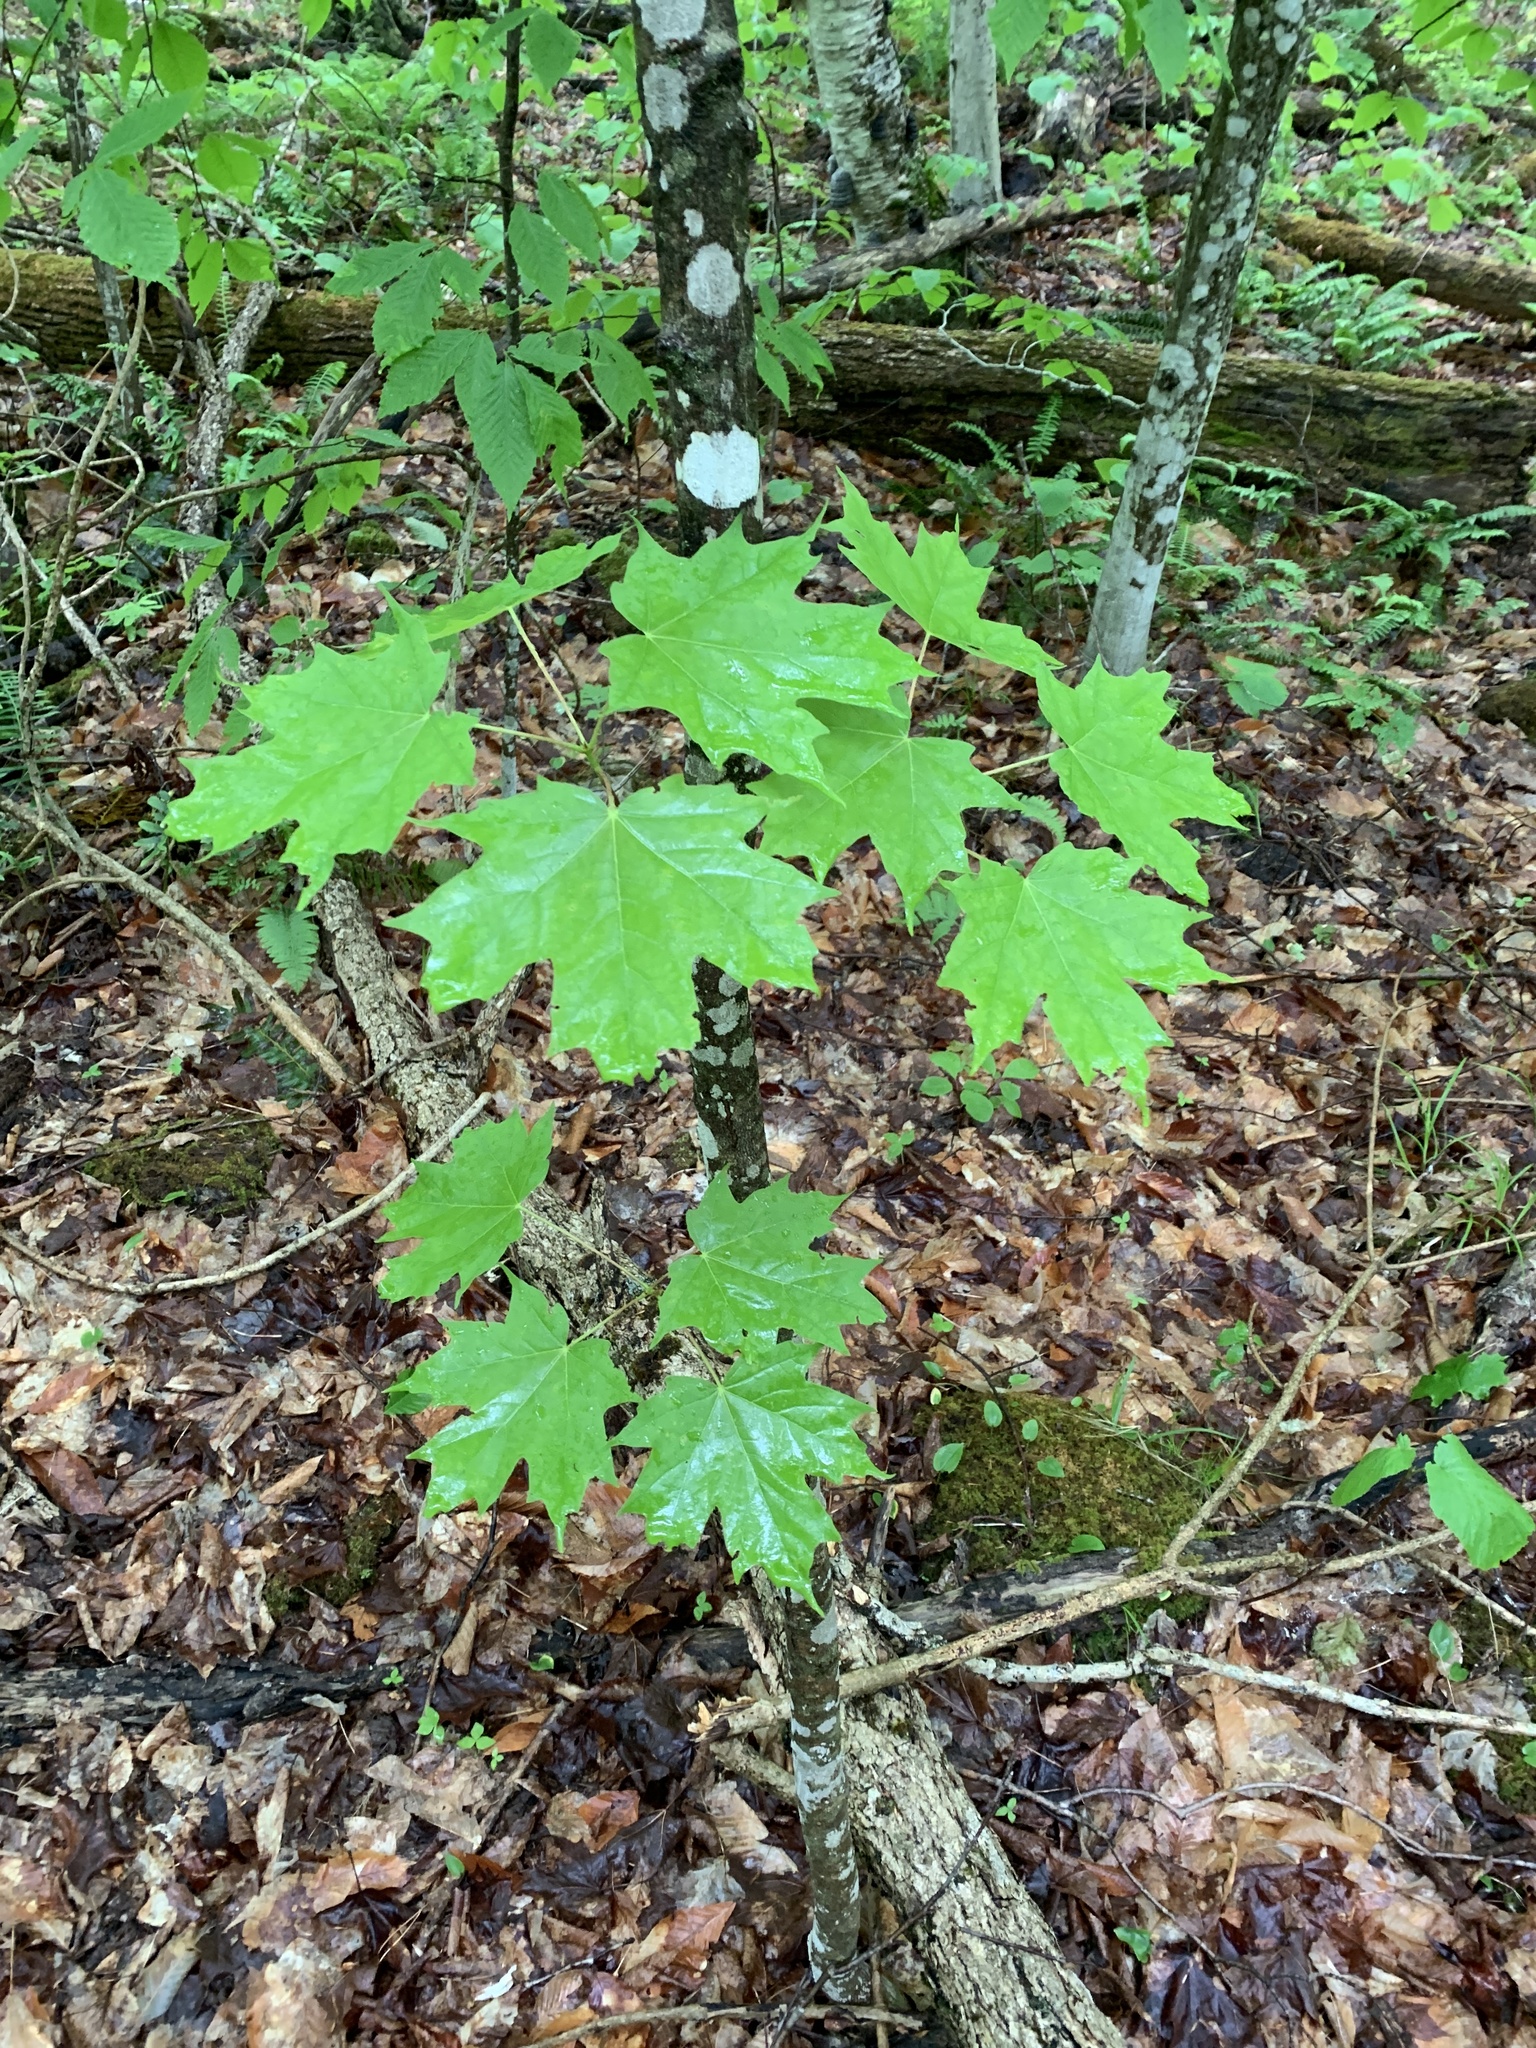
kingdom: Plantae
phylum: Tracheophyta
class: Magnoliopsida
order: Sapindales
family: Sapindaceae
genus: Acer
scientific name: Acer saccharum
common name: Sugar maple
